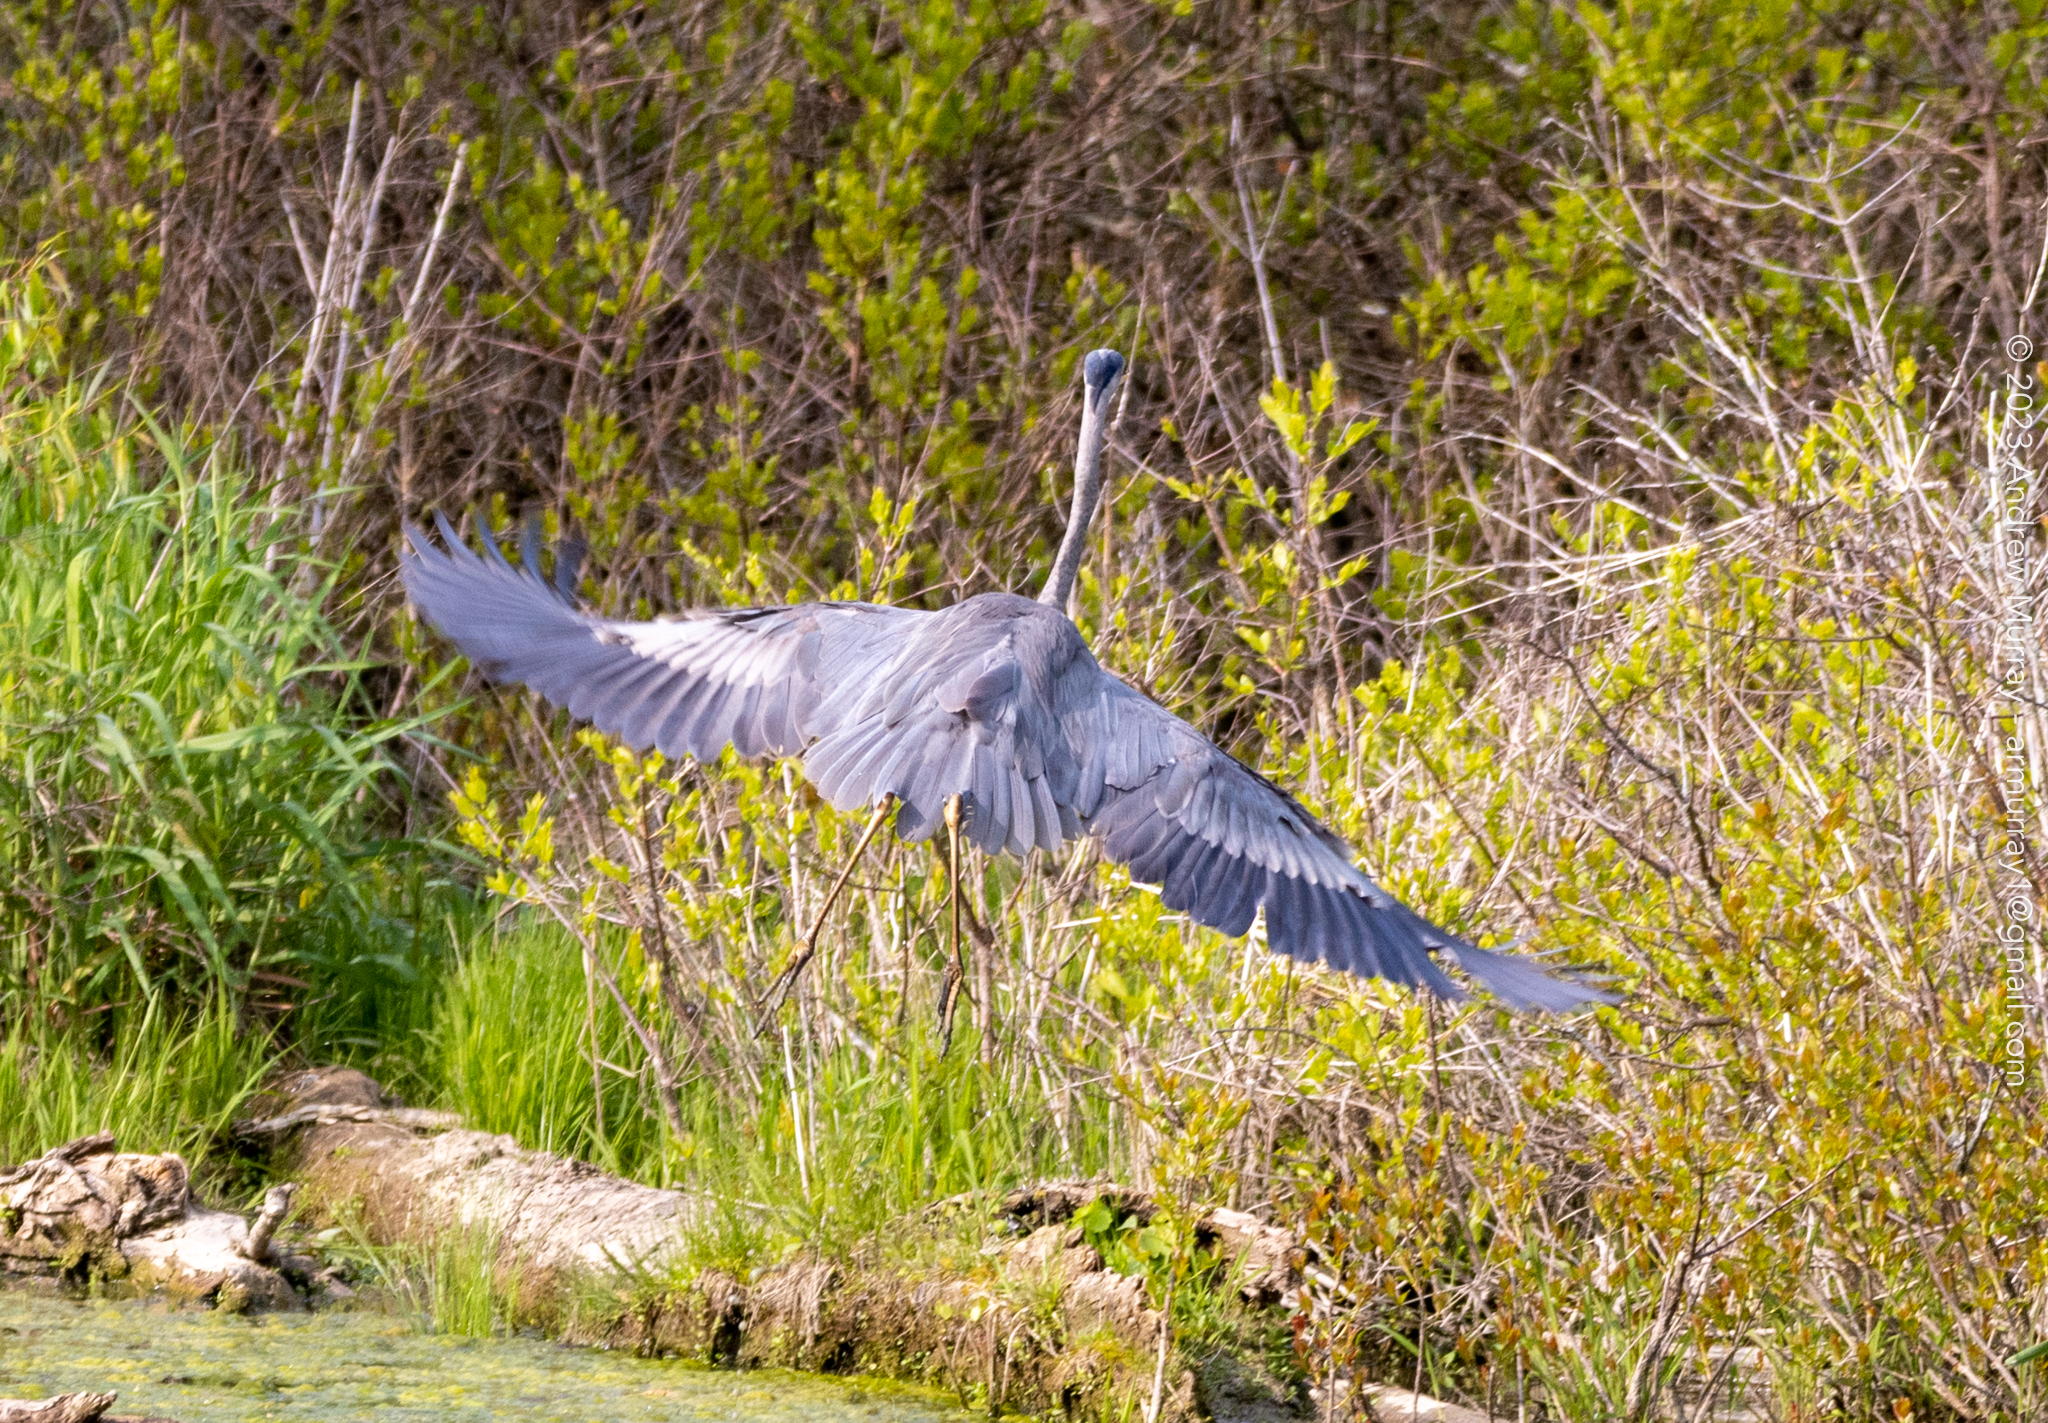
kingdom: Animalia
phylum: Chordata
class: Aves
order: Pelecaniformes
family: Ardeidae
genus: Ardea
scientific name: Ardea herodias
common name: Great blue heron
